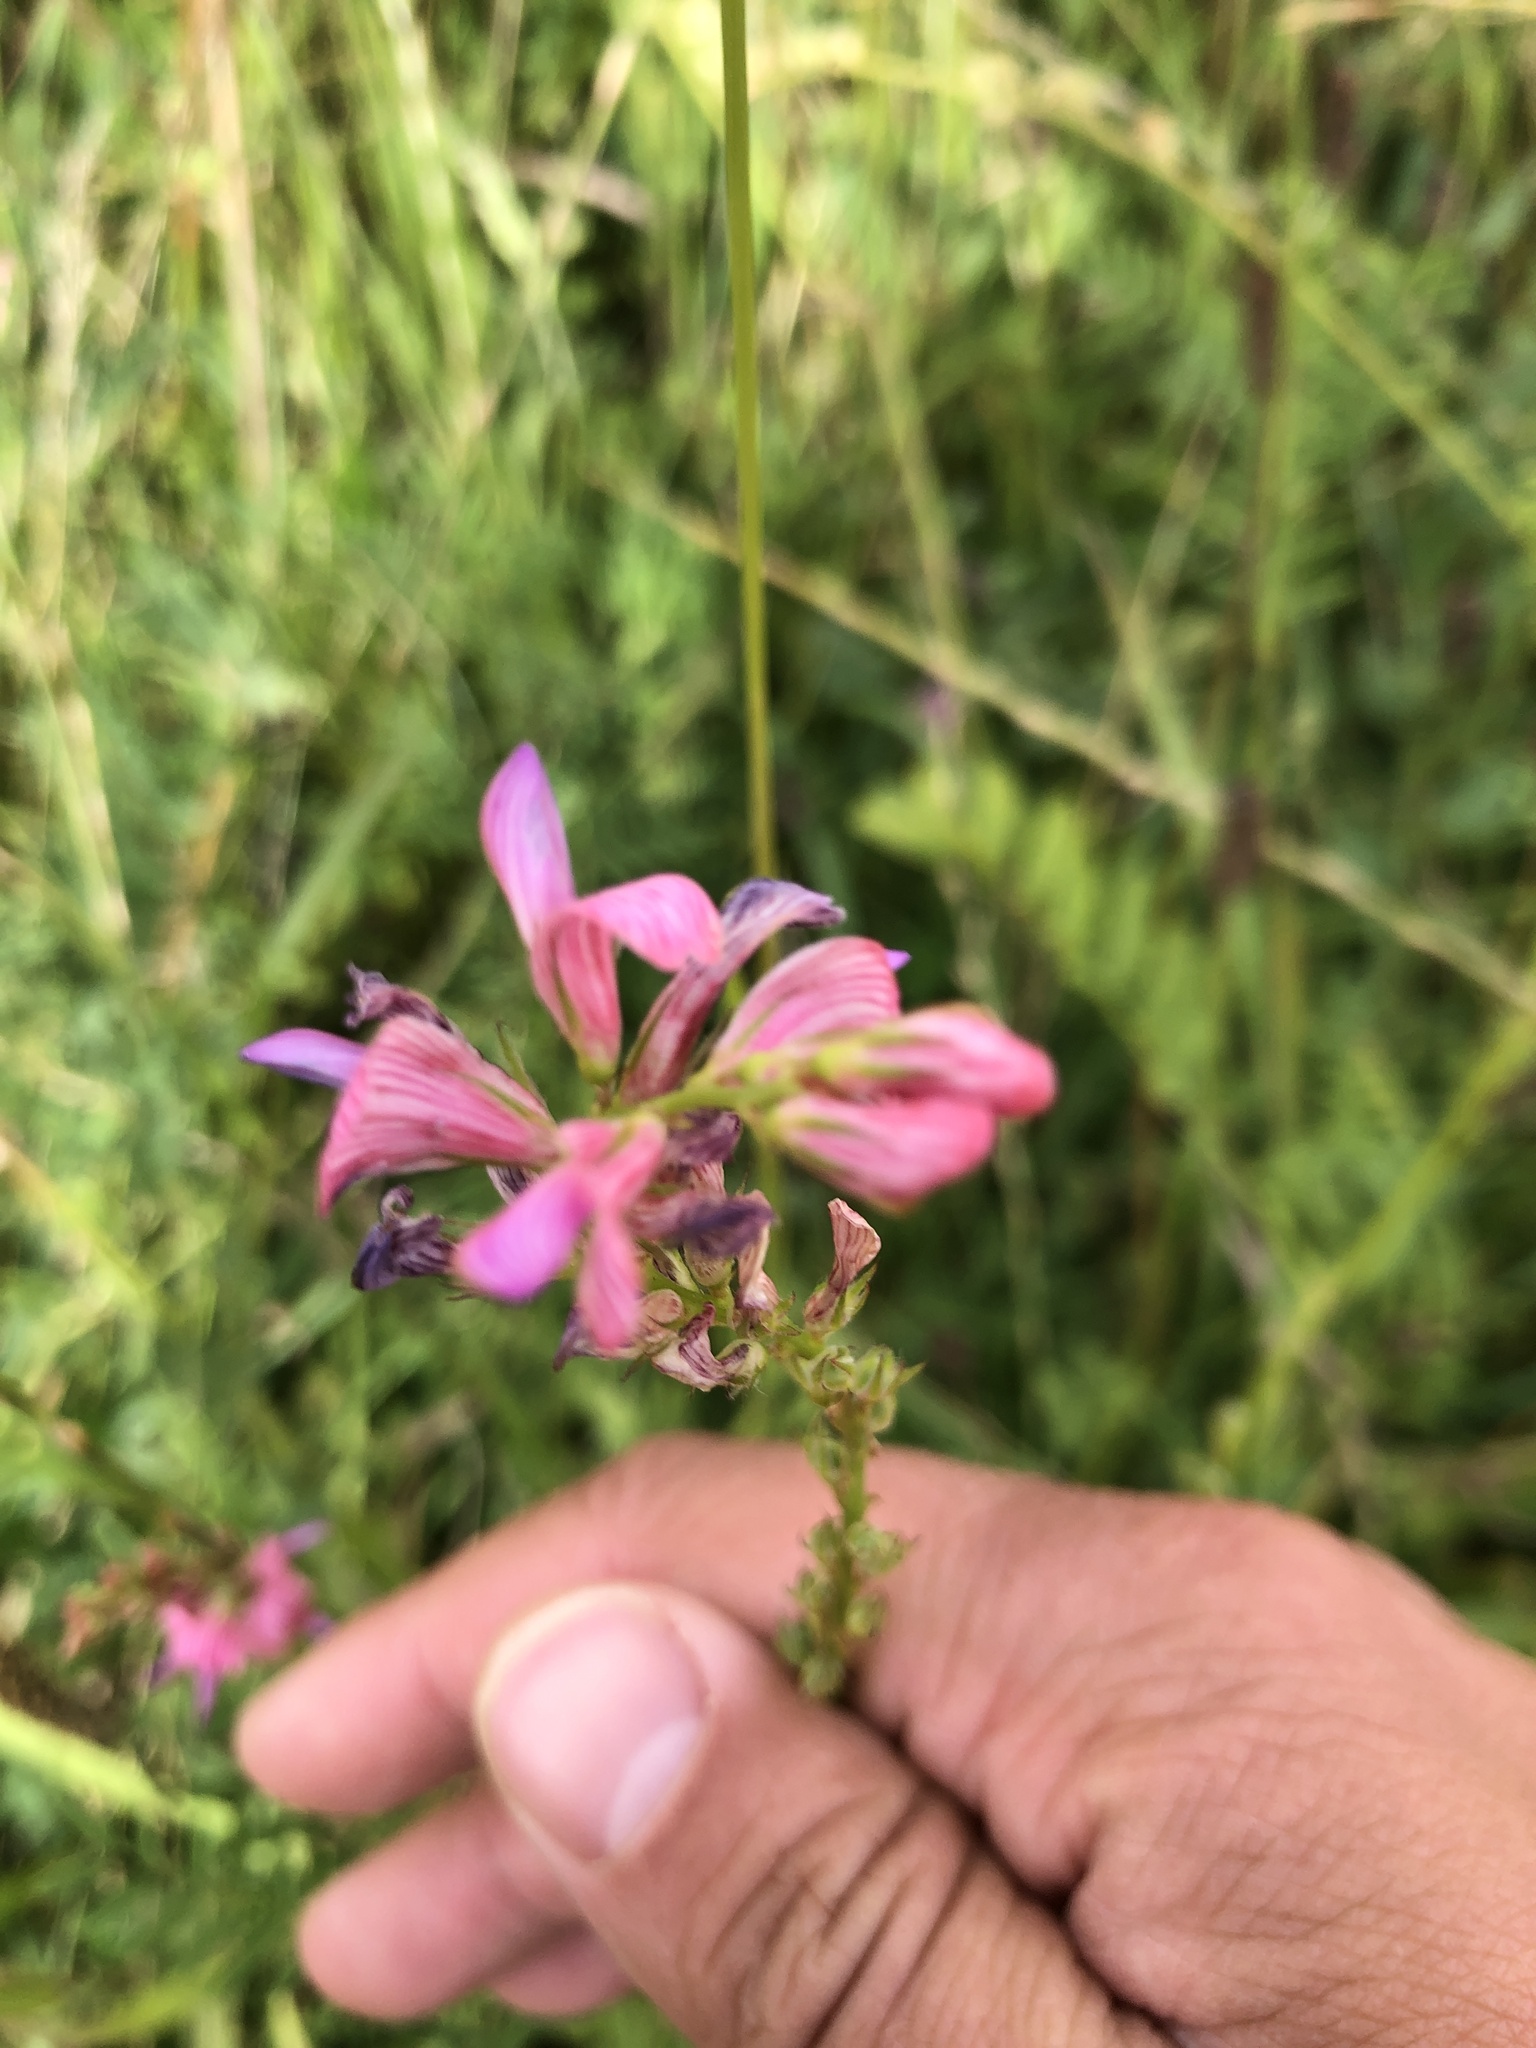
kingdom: Plantae
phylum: Tracheophyta
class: Magnoliopsida
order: Fabales
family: Fabaceae
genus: Onobrychis
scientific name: Onobrychis viciifolia
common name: Sainfoin
